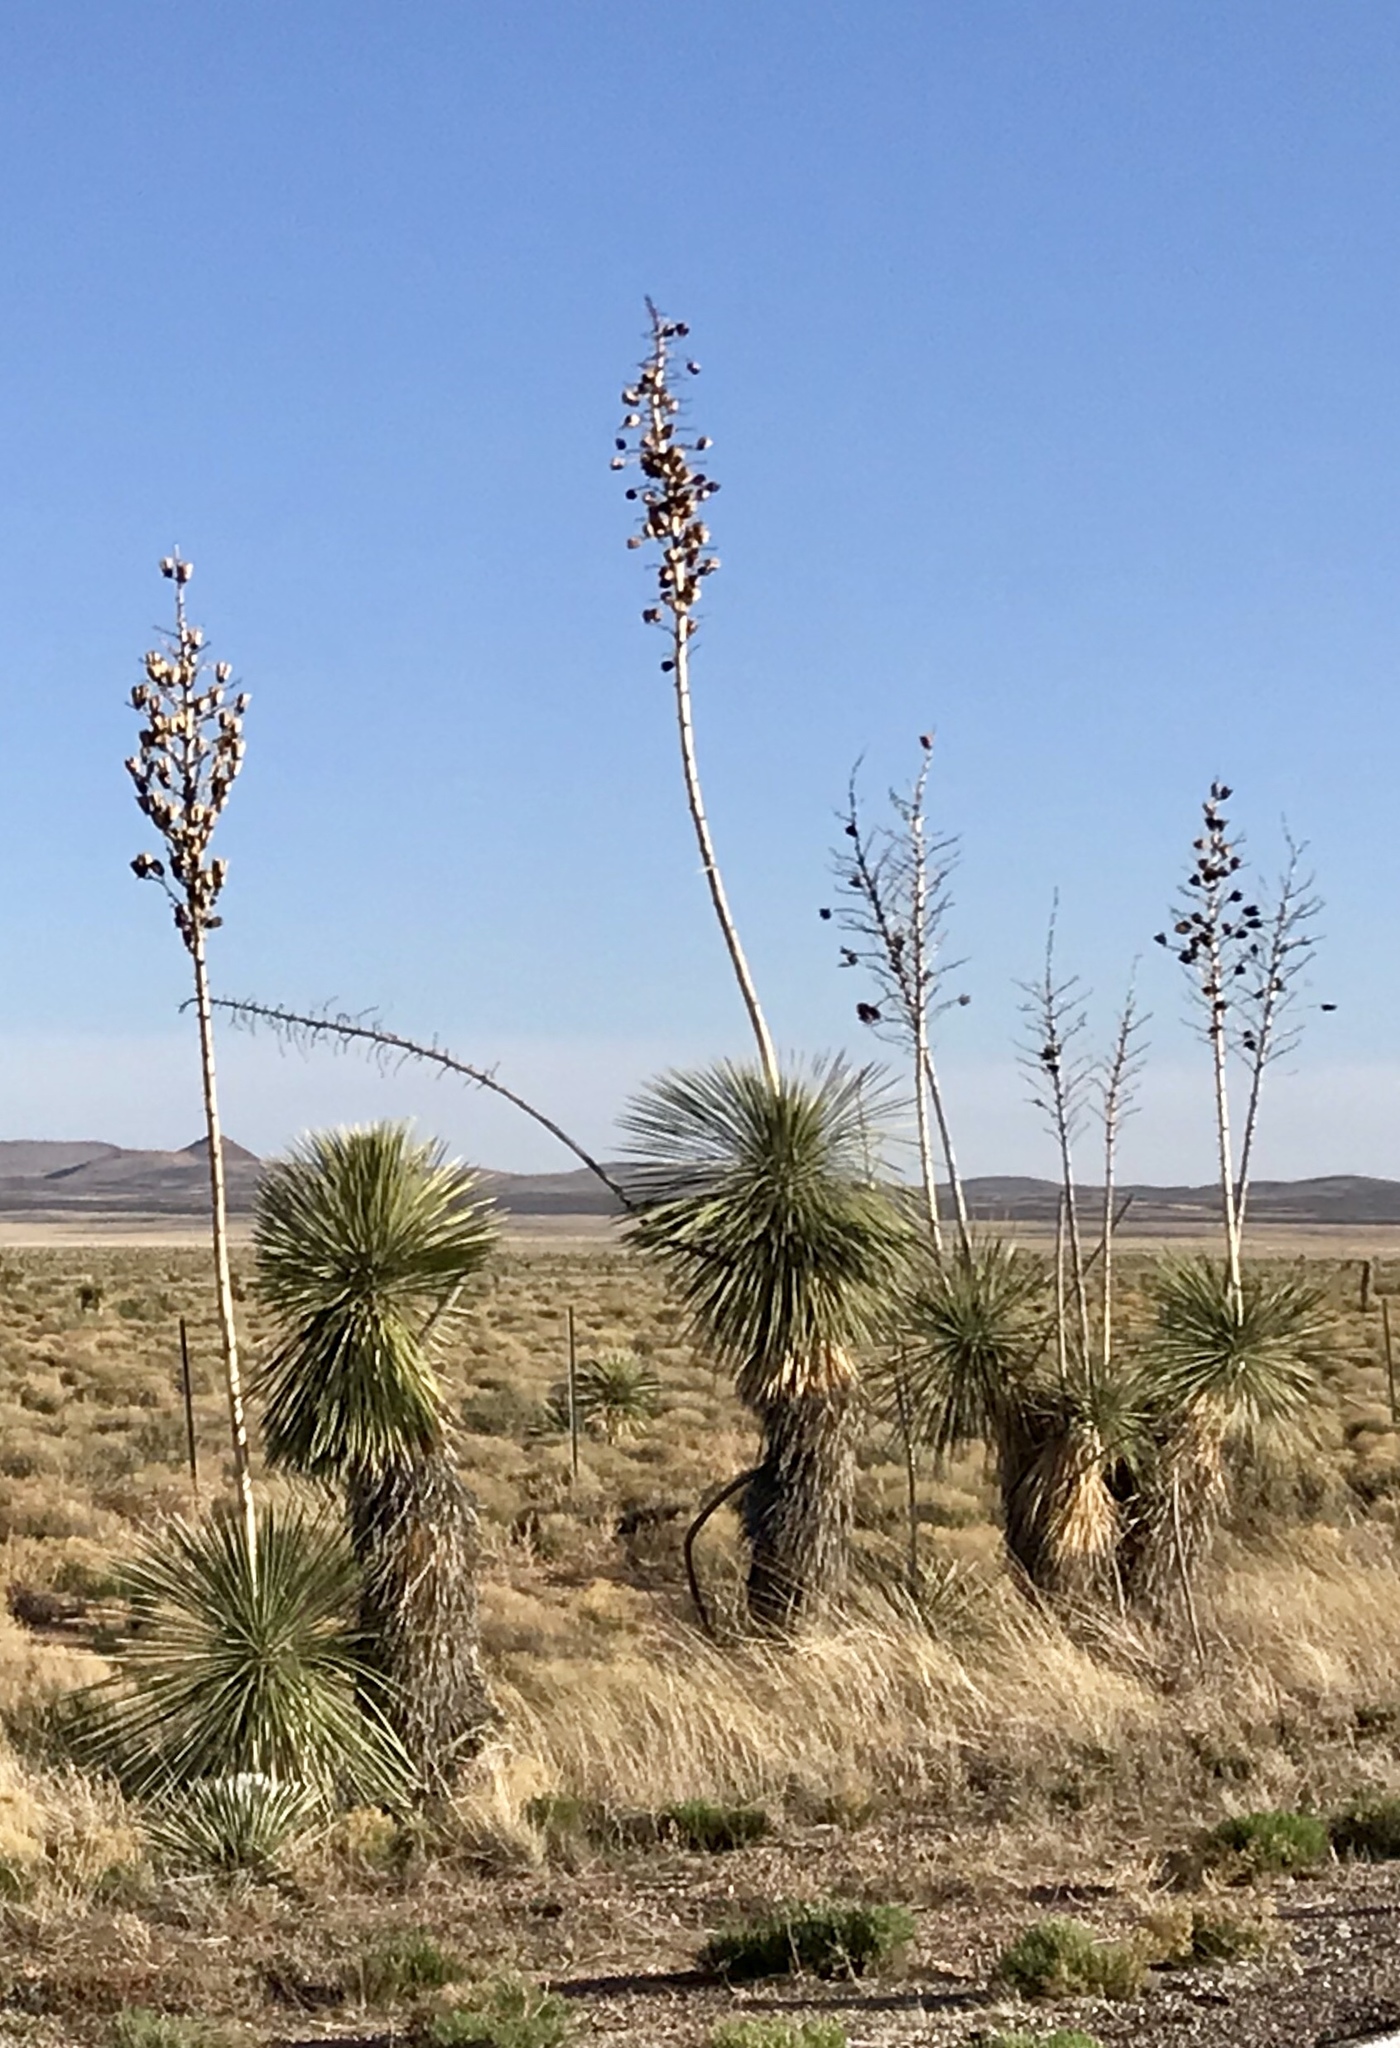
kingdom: Plantae
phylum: Tracheophyta
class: Liliopsida
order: Asparagales
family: Asparagaceae
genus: Yucca
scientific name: Yucca elata
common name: Palmella
